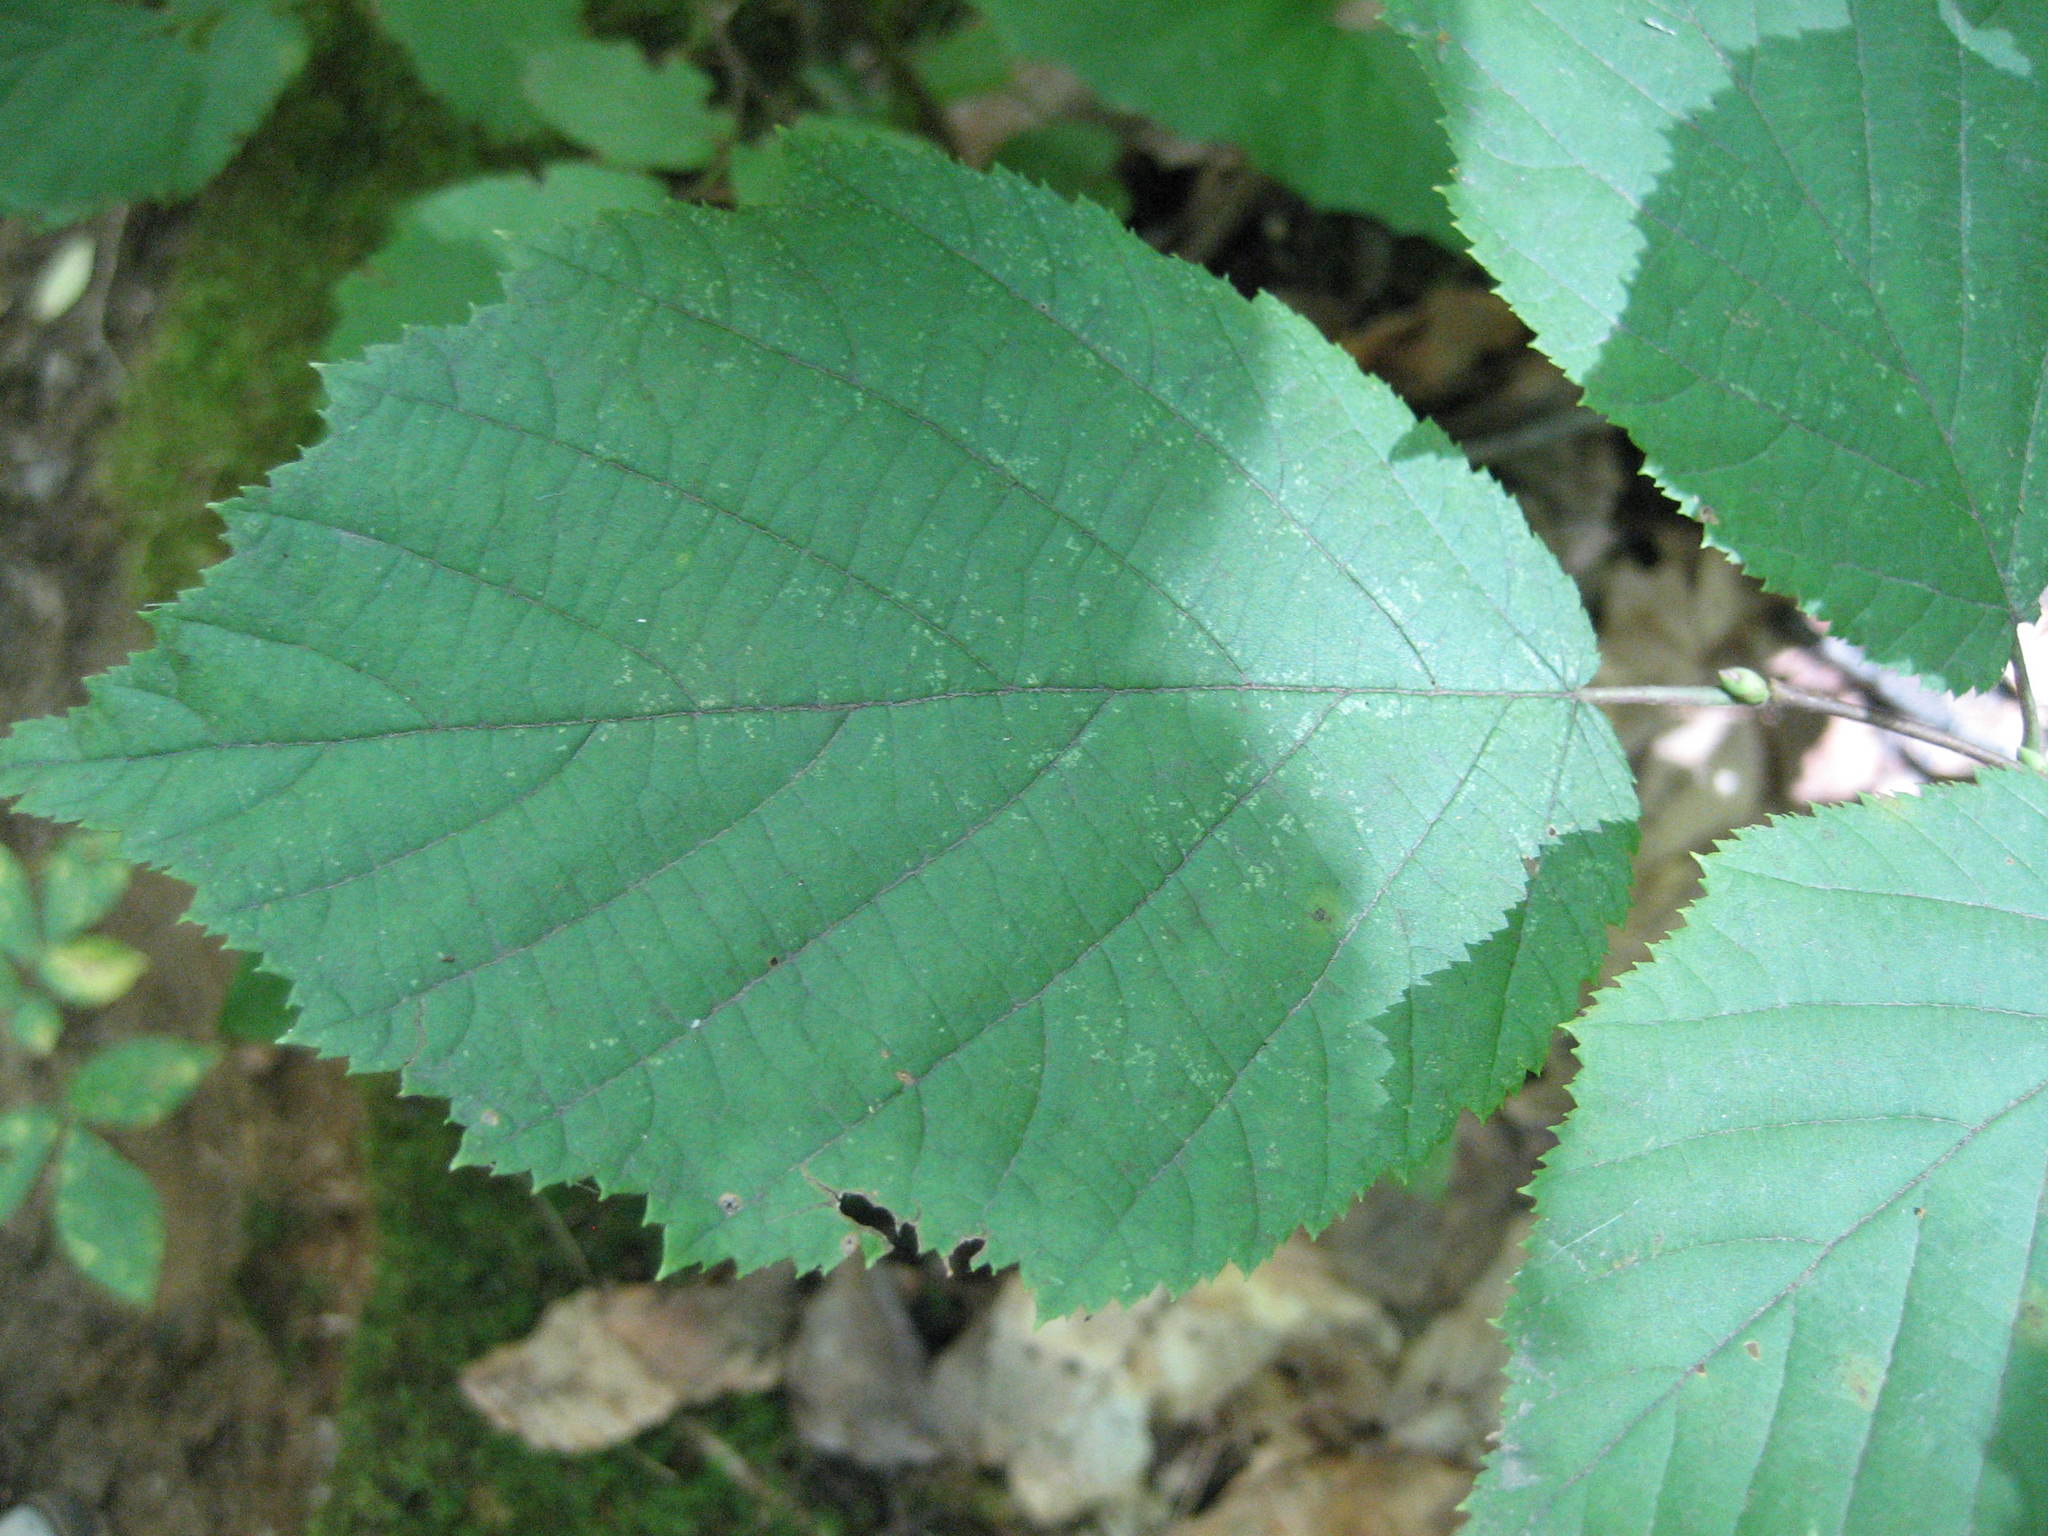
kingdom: Plantae
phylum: Tracheophyta
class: Magnoliopsida
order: Fagales
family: Betulaceae
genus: Corylus
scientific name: Corylus cornuta
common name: Beaked hazel
